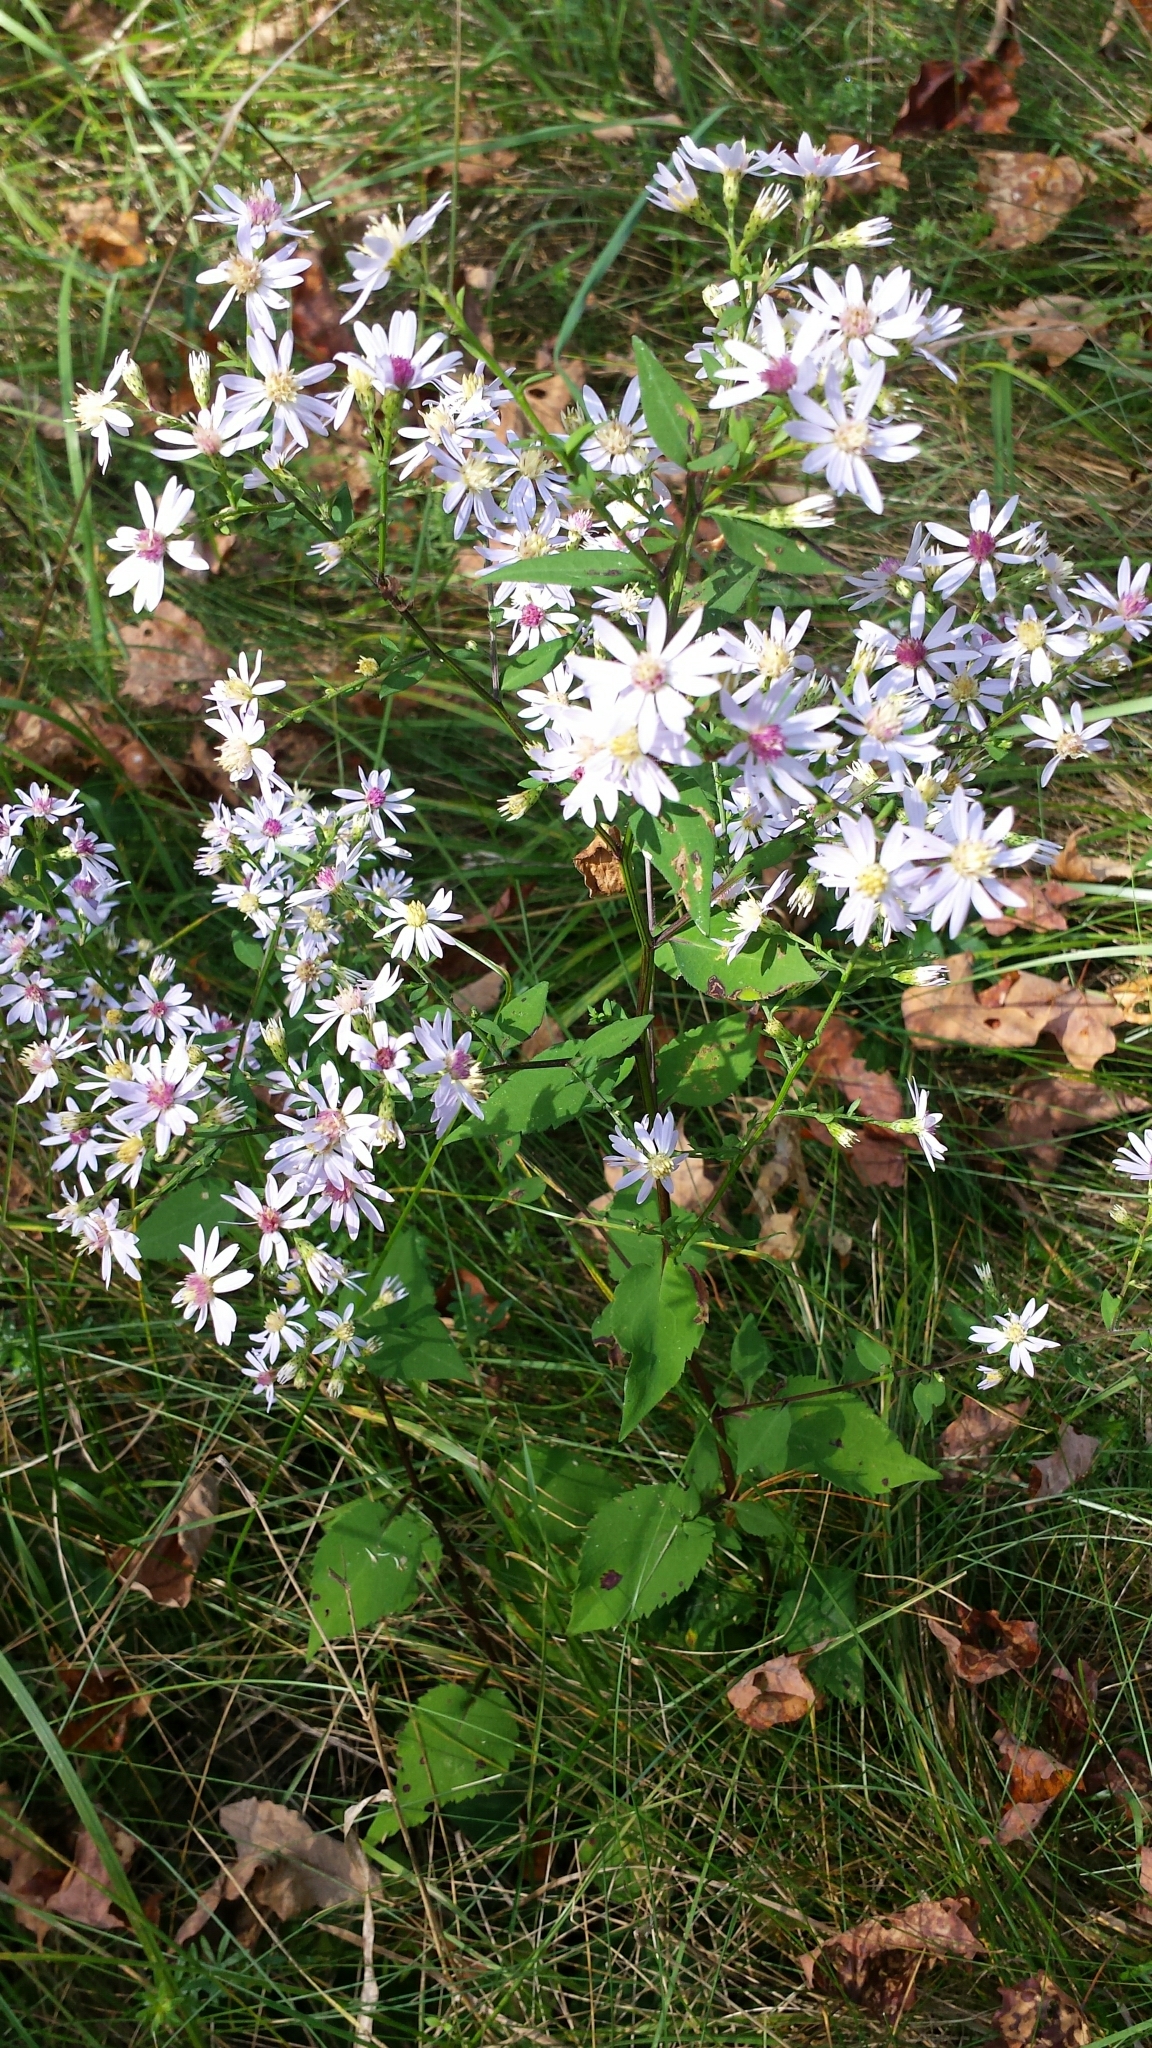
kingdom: Plantae
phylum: Tracheophyta
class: Magnoliopsida
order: Asterales
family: Asteraceae
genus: Symphyotrichum
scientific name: Symphyotrichum cordifolium
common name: Beeweed
